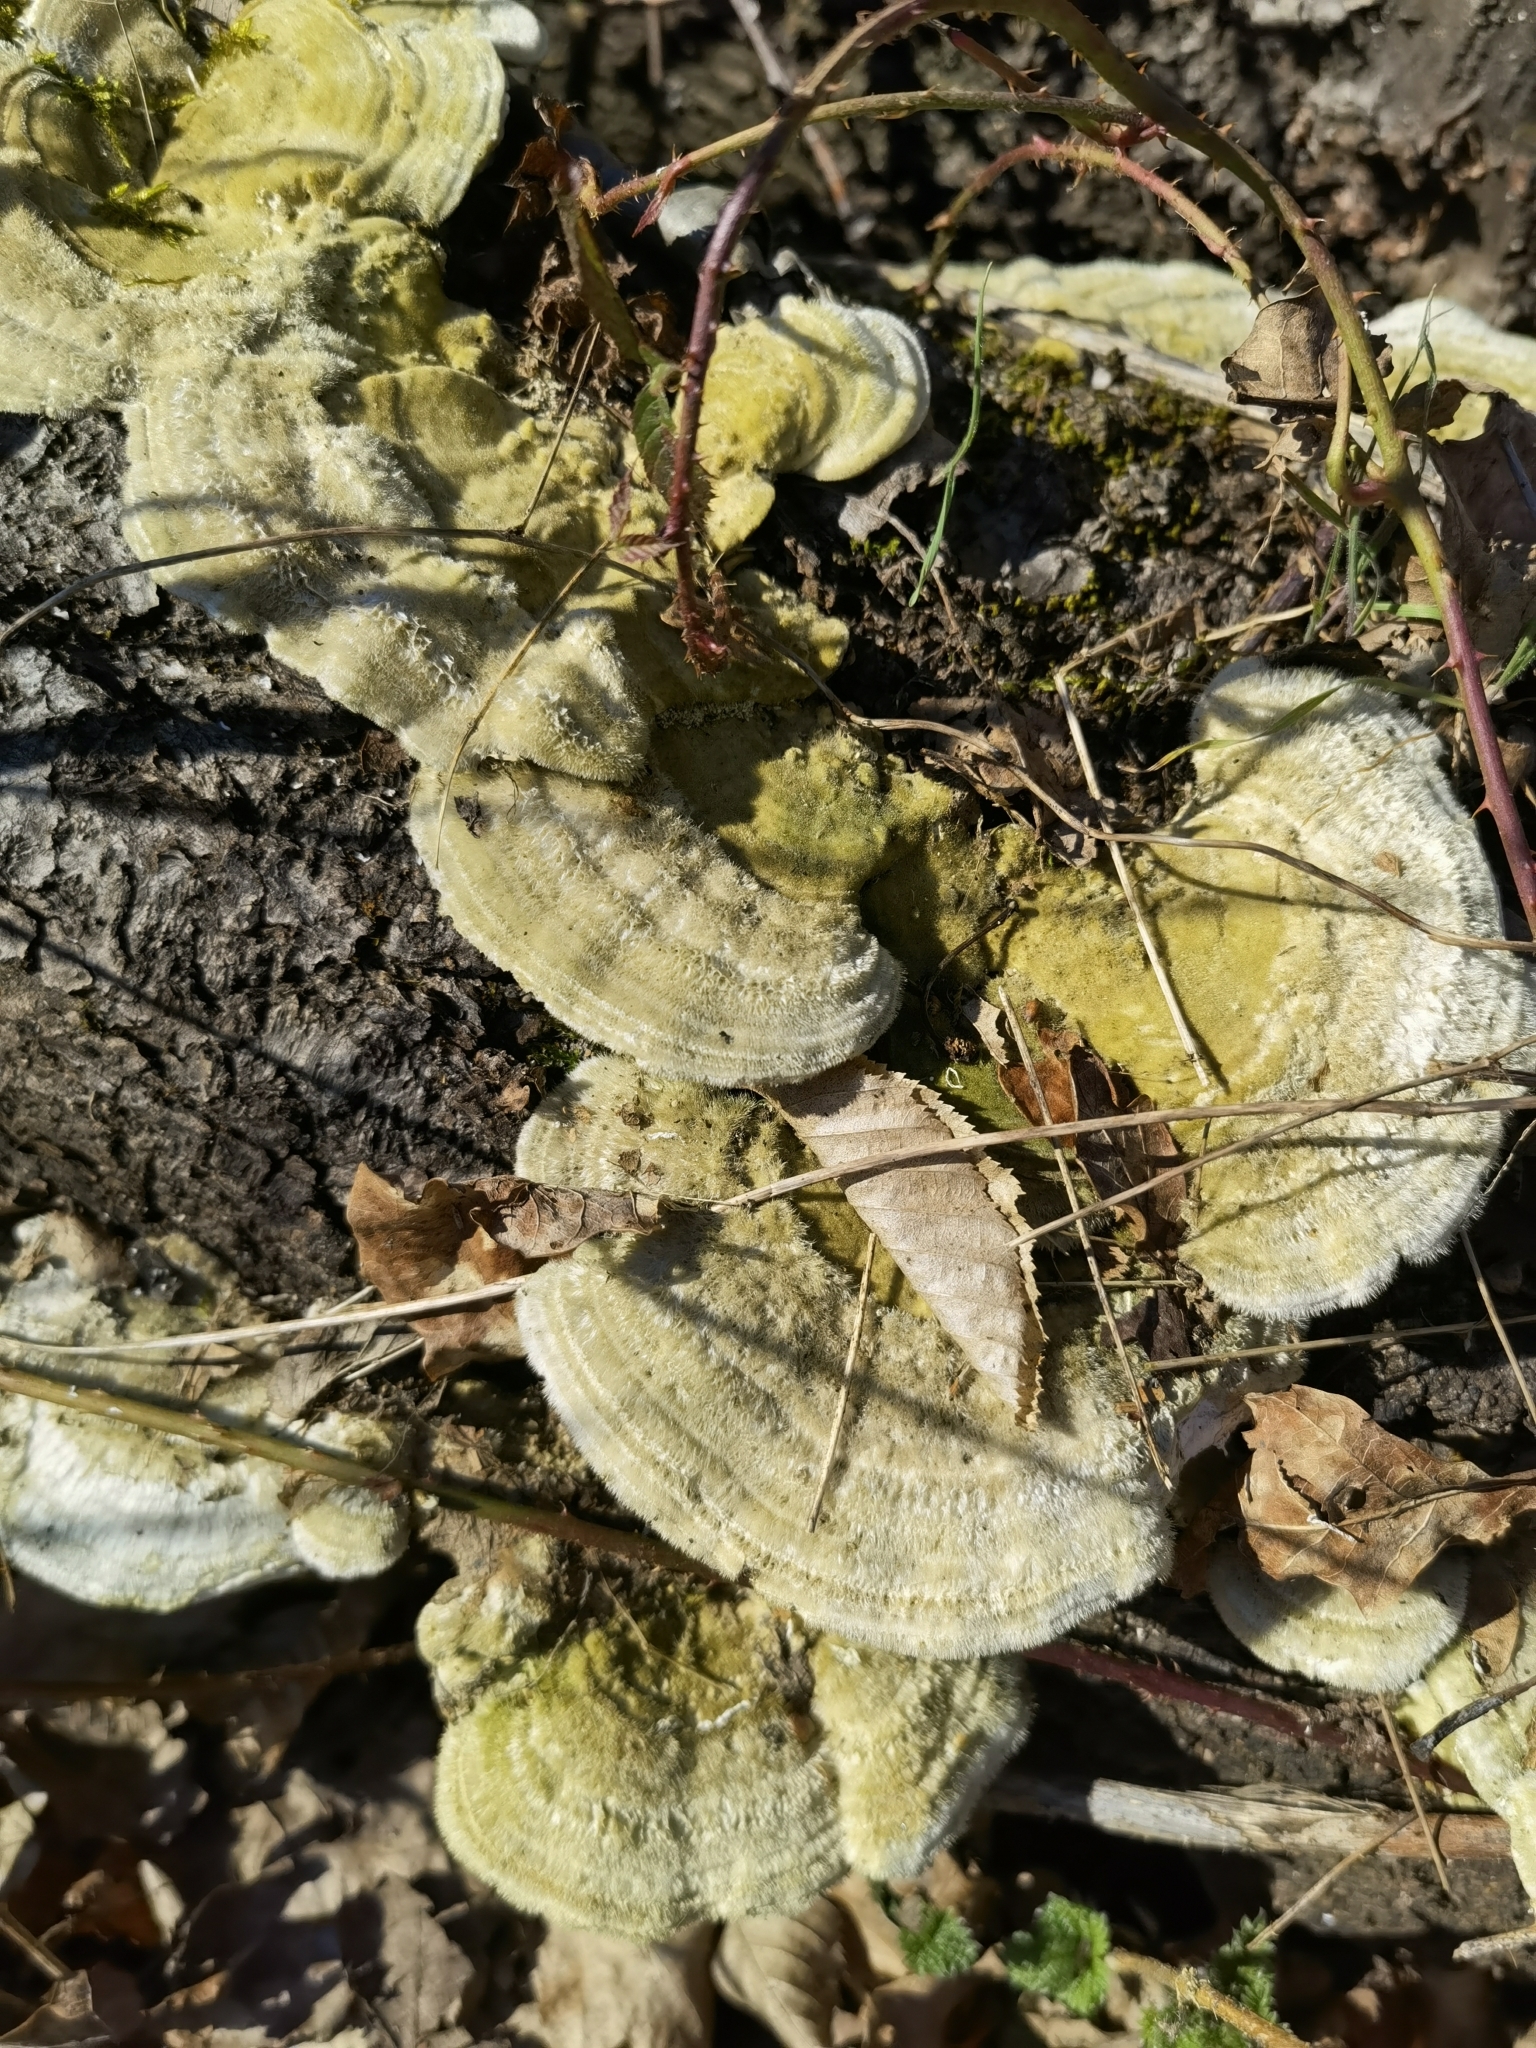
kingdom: Fungi
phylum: Basidiomycota
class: Agaricomycetes
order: Polyporales
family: Polyporaceae
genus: Trametes
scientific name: Trametes hirsuta
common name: Hairy bracket
